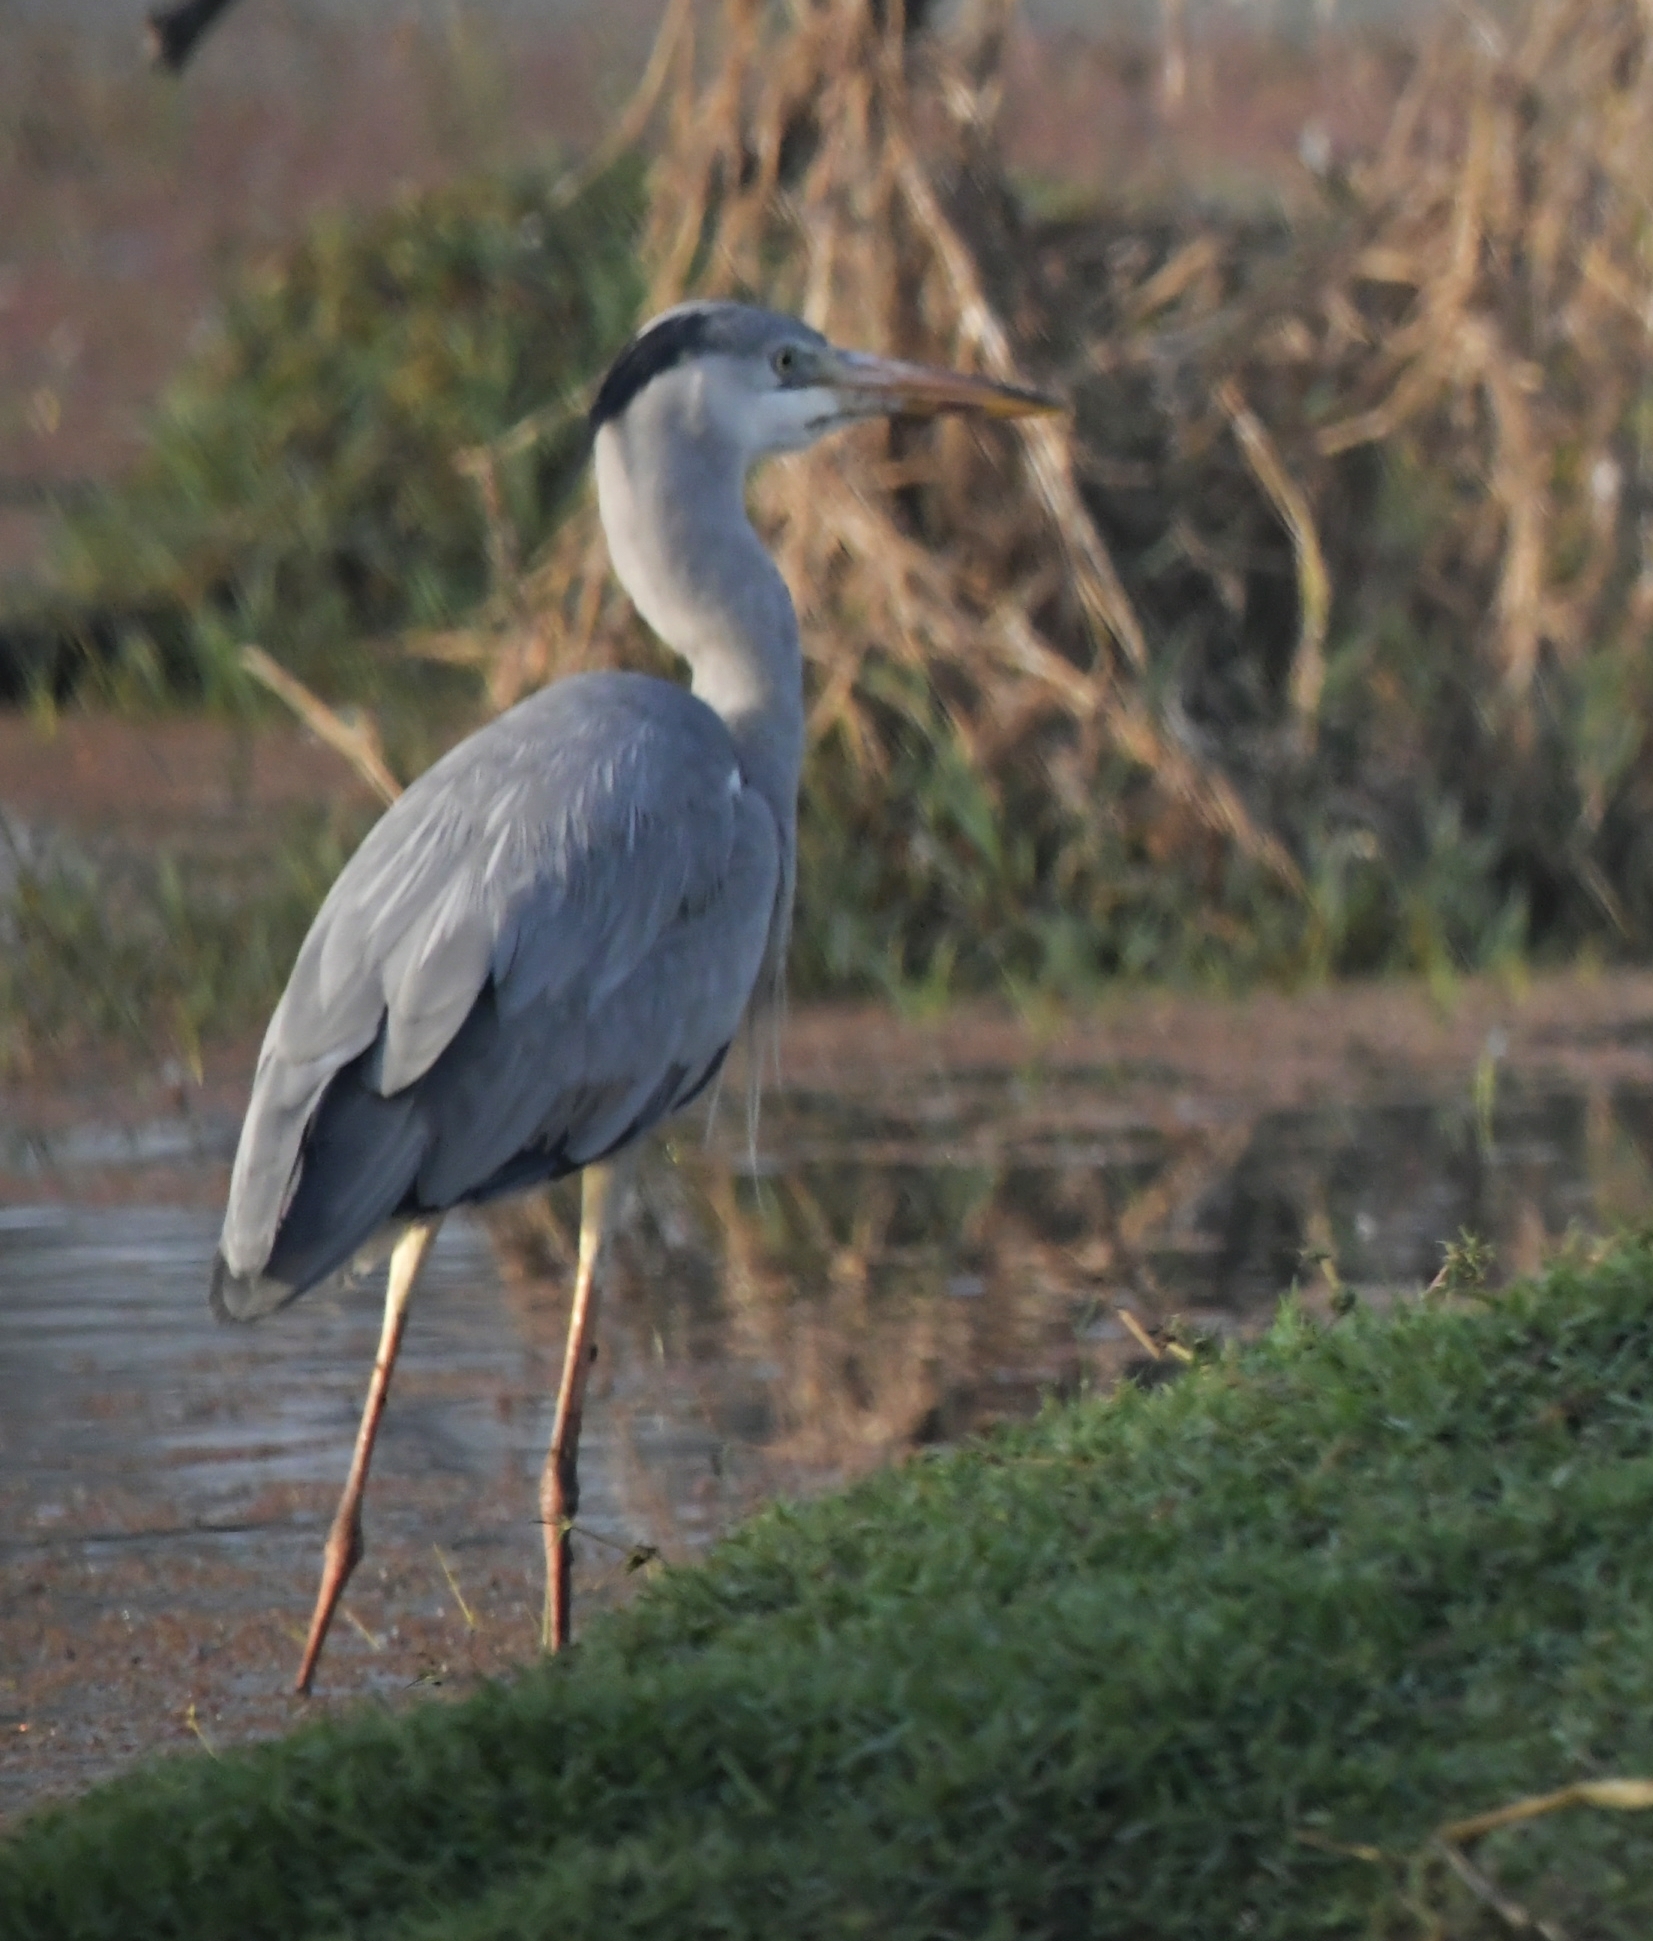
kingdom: Animalia
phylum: Chordata
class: Aves
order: Pelecaniformes
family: Ardeidae
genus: Ardea
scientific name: Ardea cinerea
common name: Grey heron
